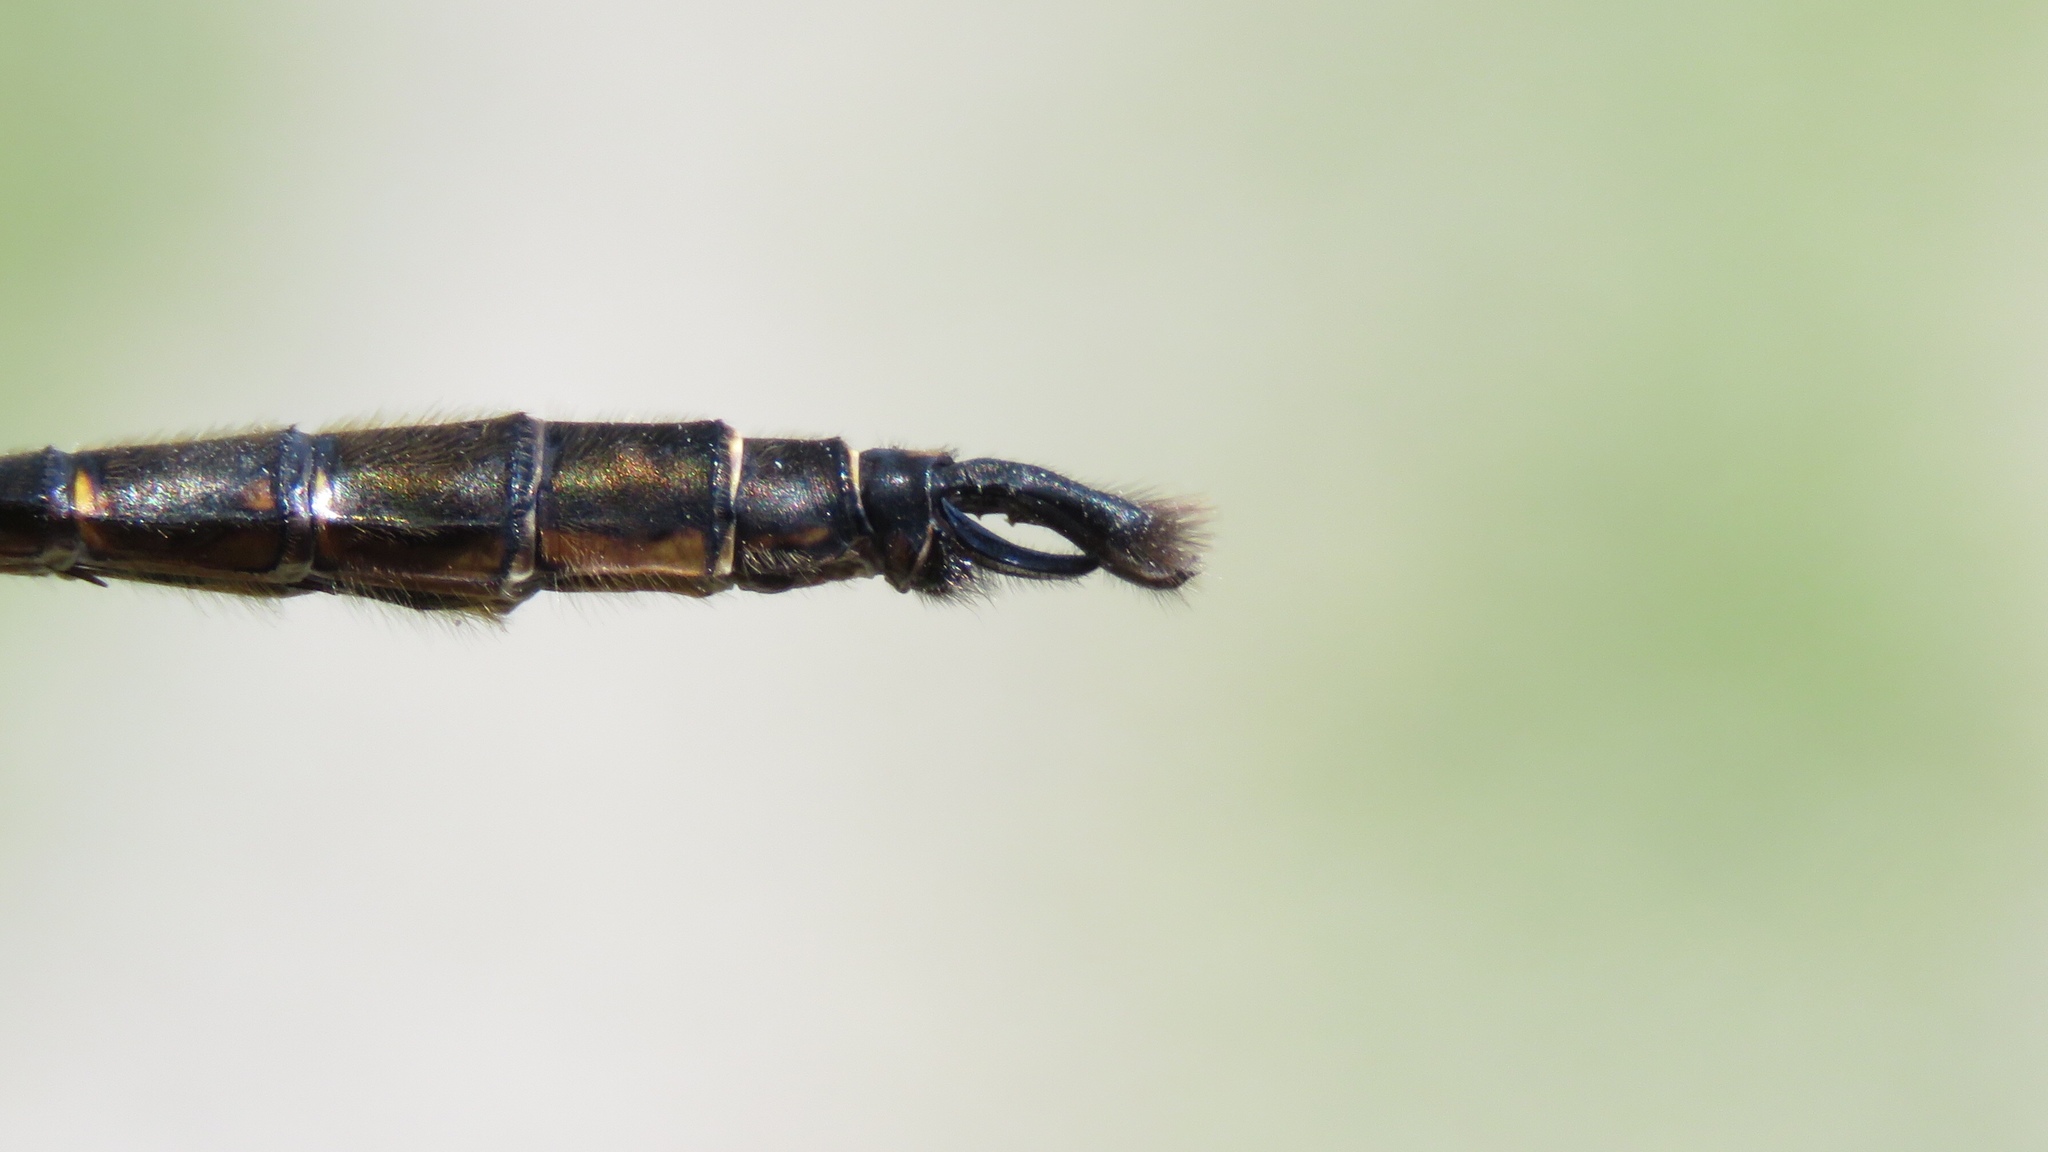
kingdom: Animalia
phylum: Arthropoda
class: Insecta
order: Odonata
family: Corduliidae
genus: Somatochlora
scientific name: Somatochlora walshii
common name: Brush-tipped emerald
